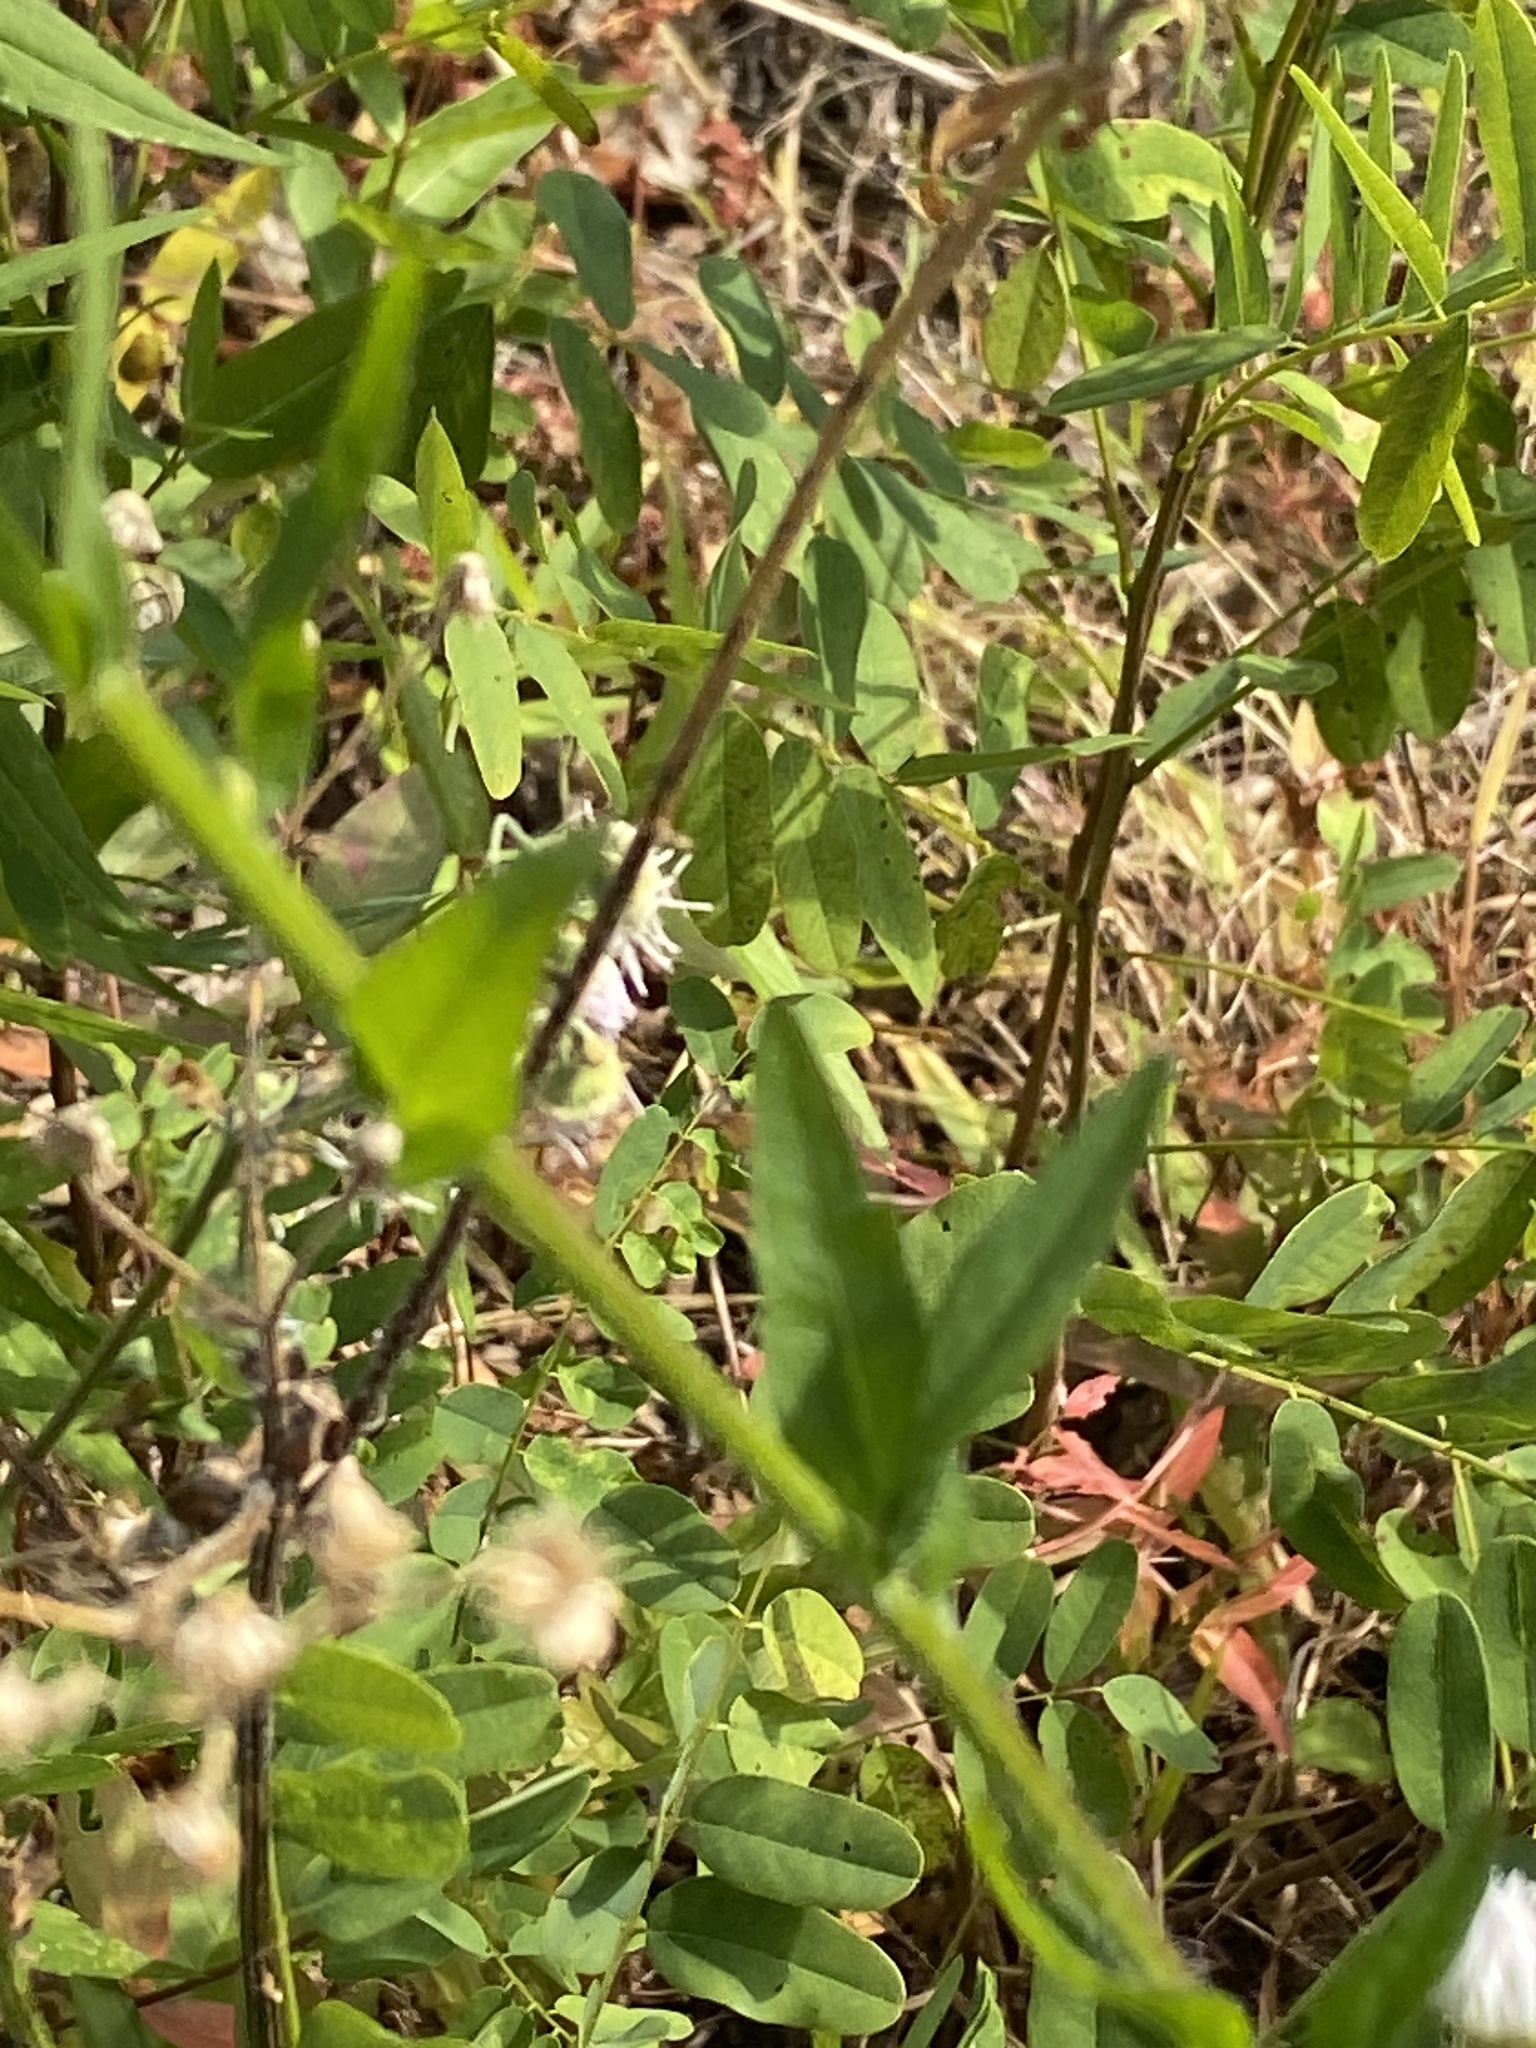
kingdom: Plantae
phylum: Tracheophyta
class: Magnoliopsida
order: Asterales
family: Asteraceae
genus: Erigeron
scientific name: Erigeron annuus
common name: Tall fleabane
